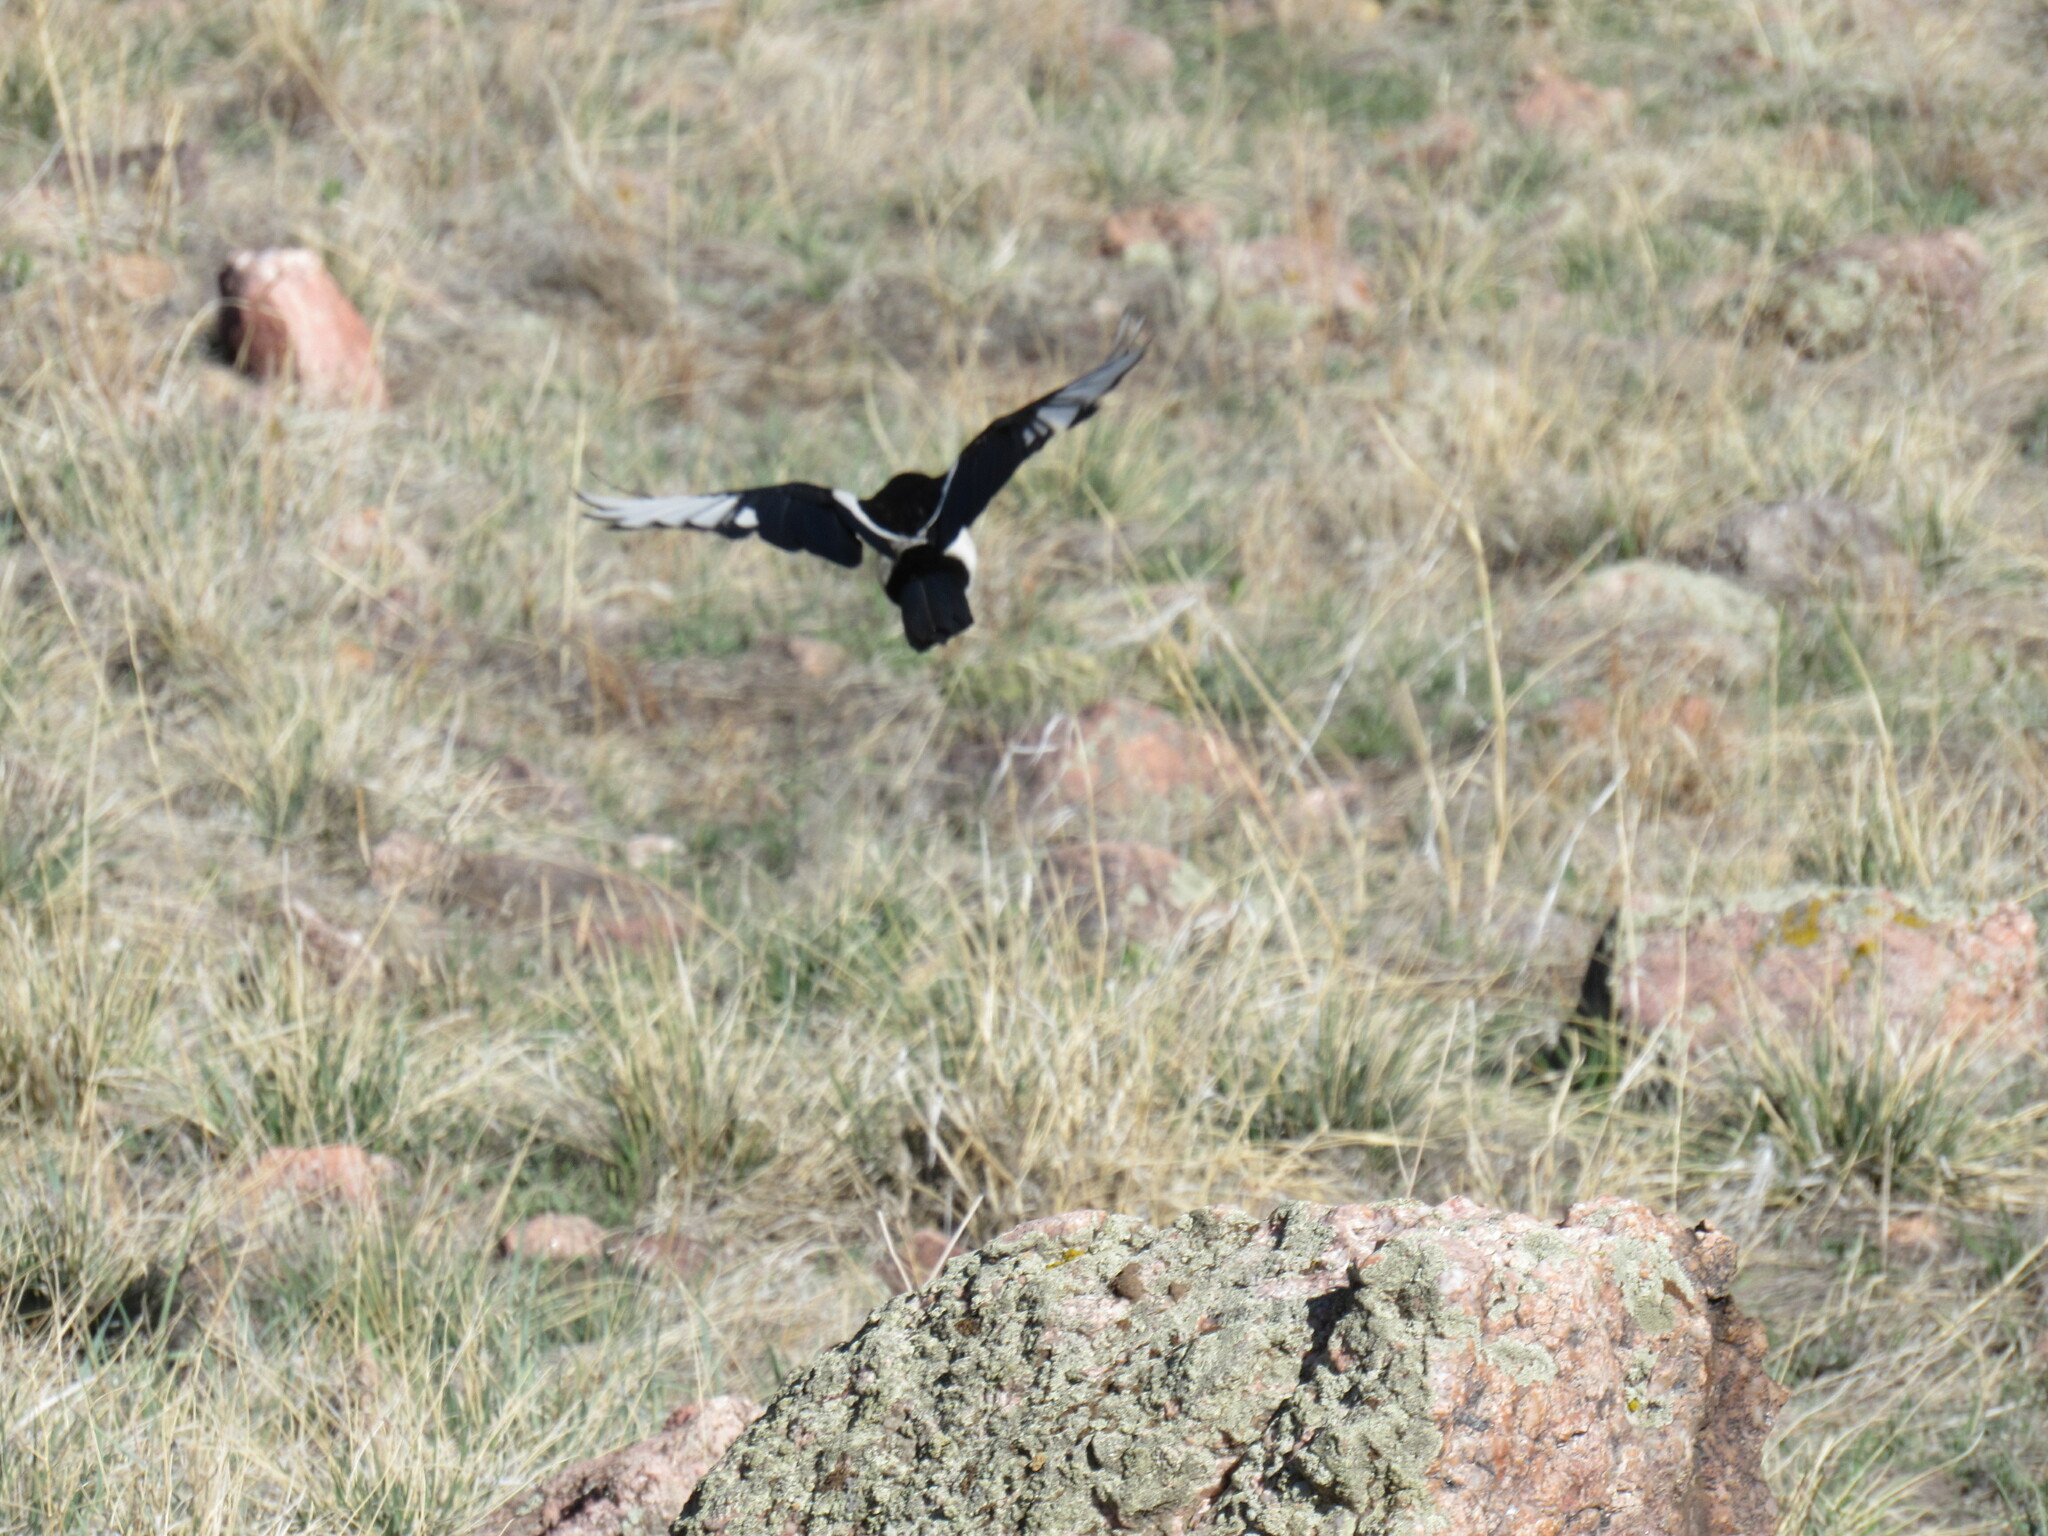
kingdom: Animalia
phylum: Chordata
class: Aves
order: Passeriformes
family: Corvidae
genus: Pica
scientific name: Pica hudsonia
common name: Black-billed magpie
